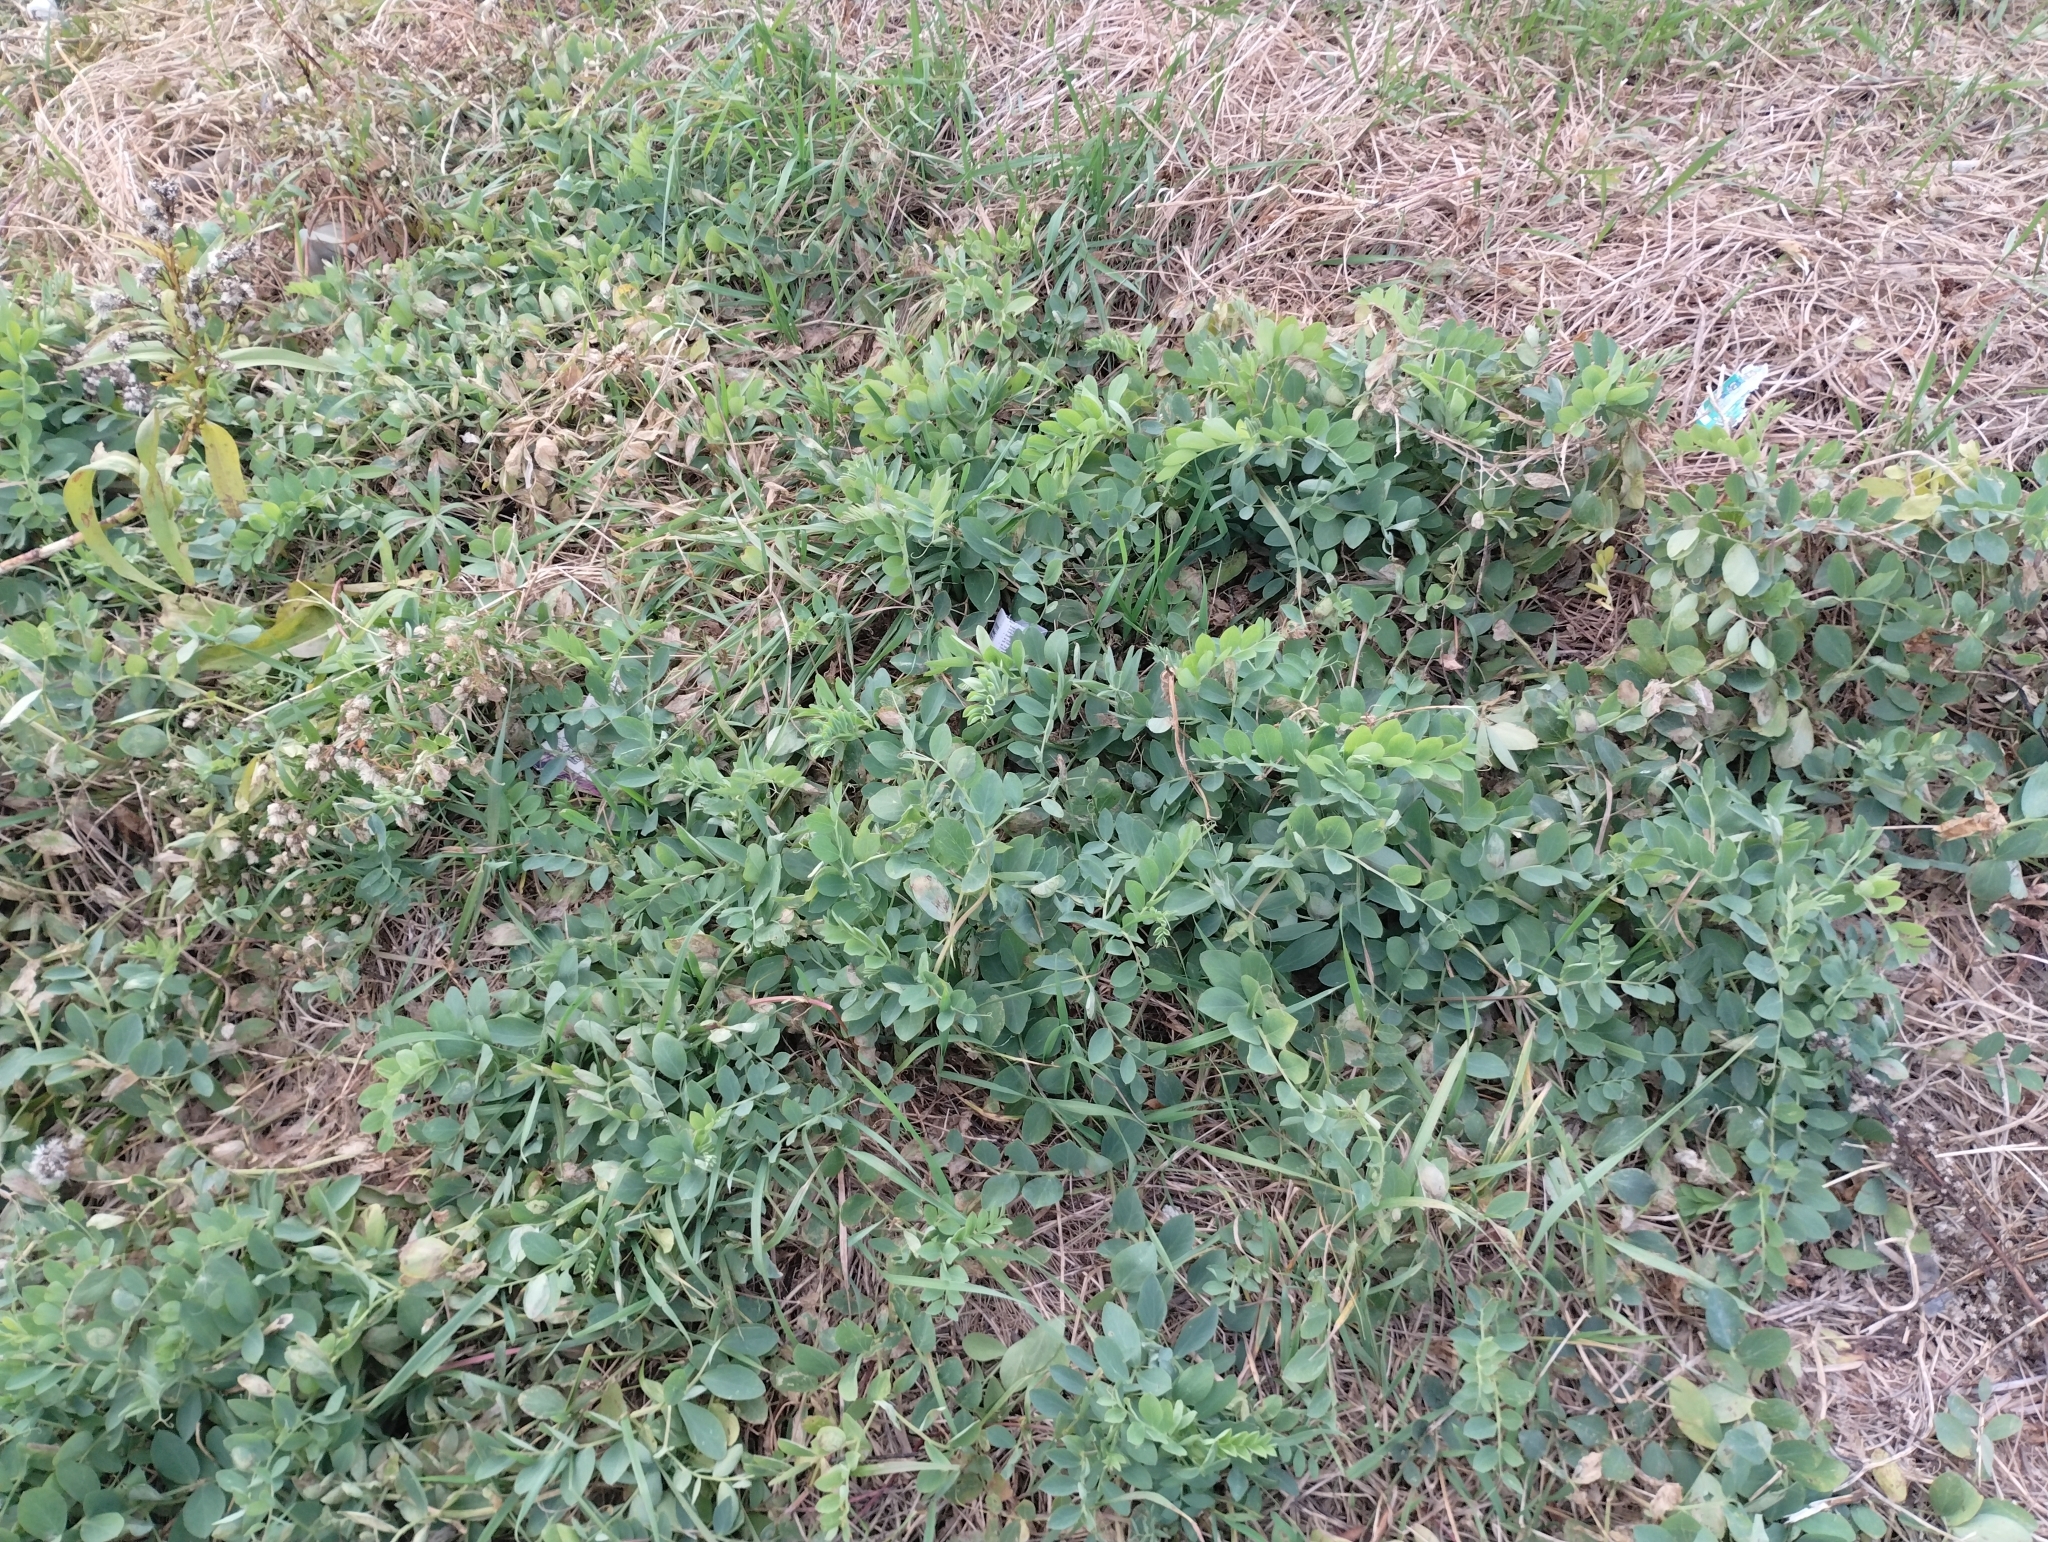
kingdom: Plantae
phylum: Tracheophyta
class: Magnoliopsida
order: Fabales
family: Fabaceae
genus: Lathyrus
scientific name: Lathyrus japonicus
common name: Sea pea
